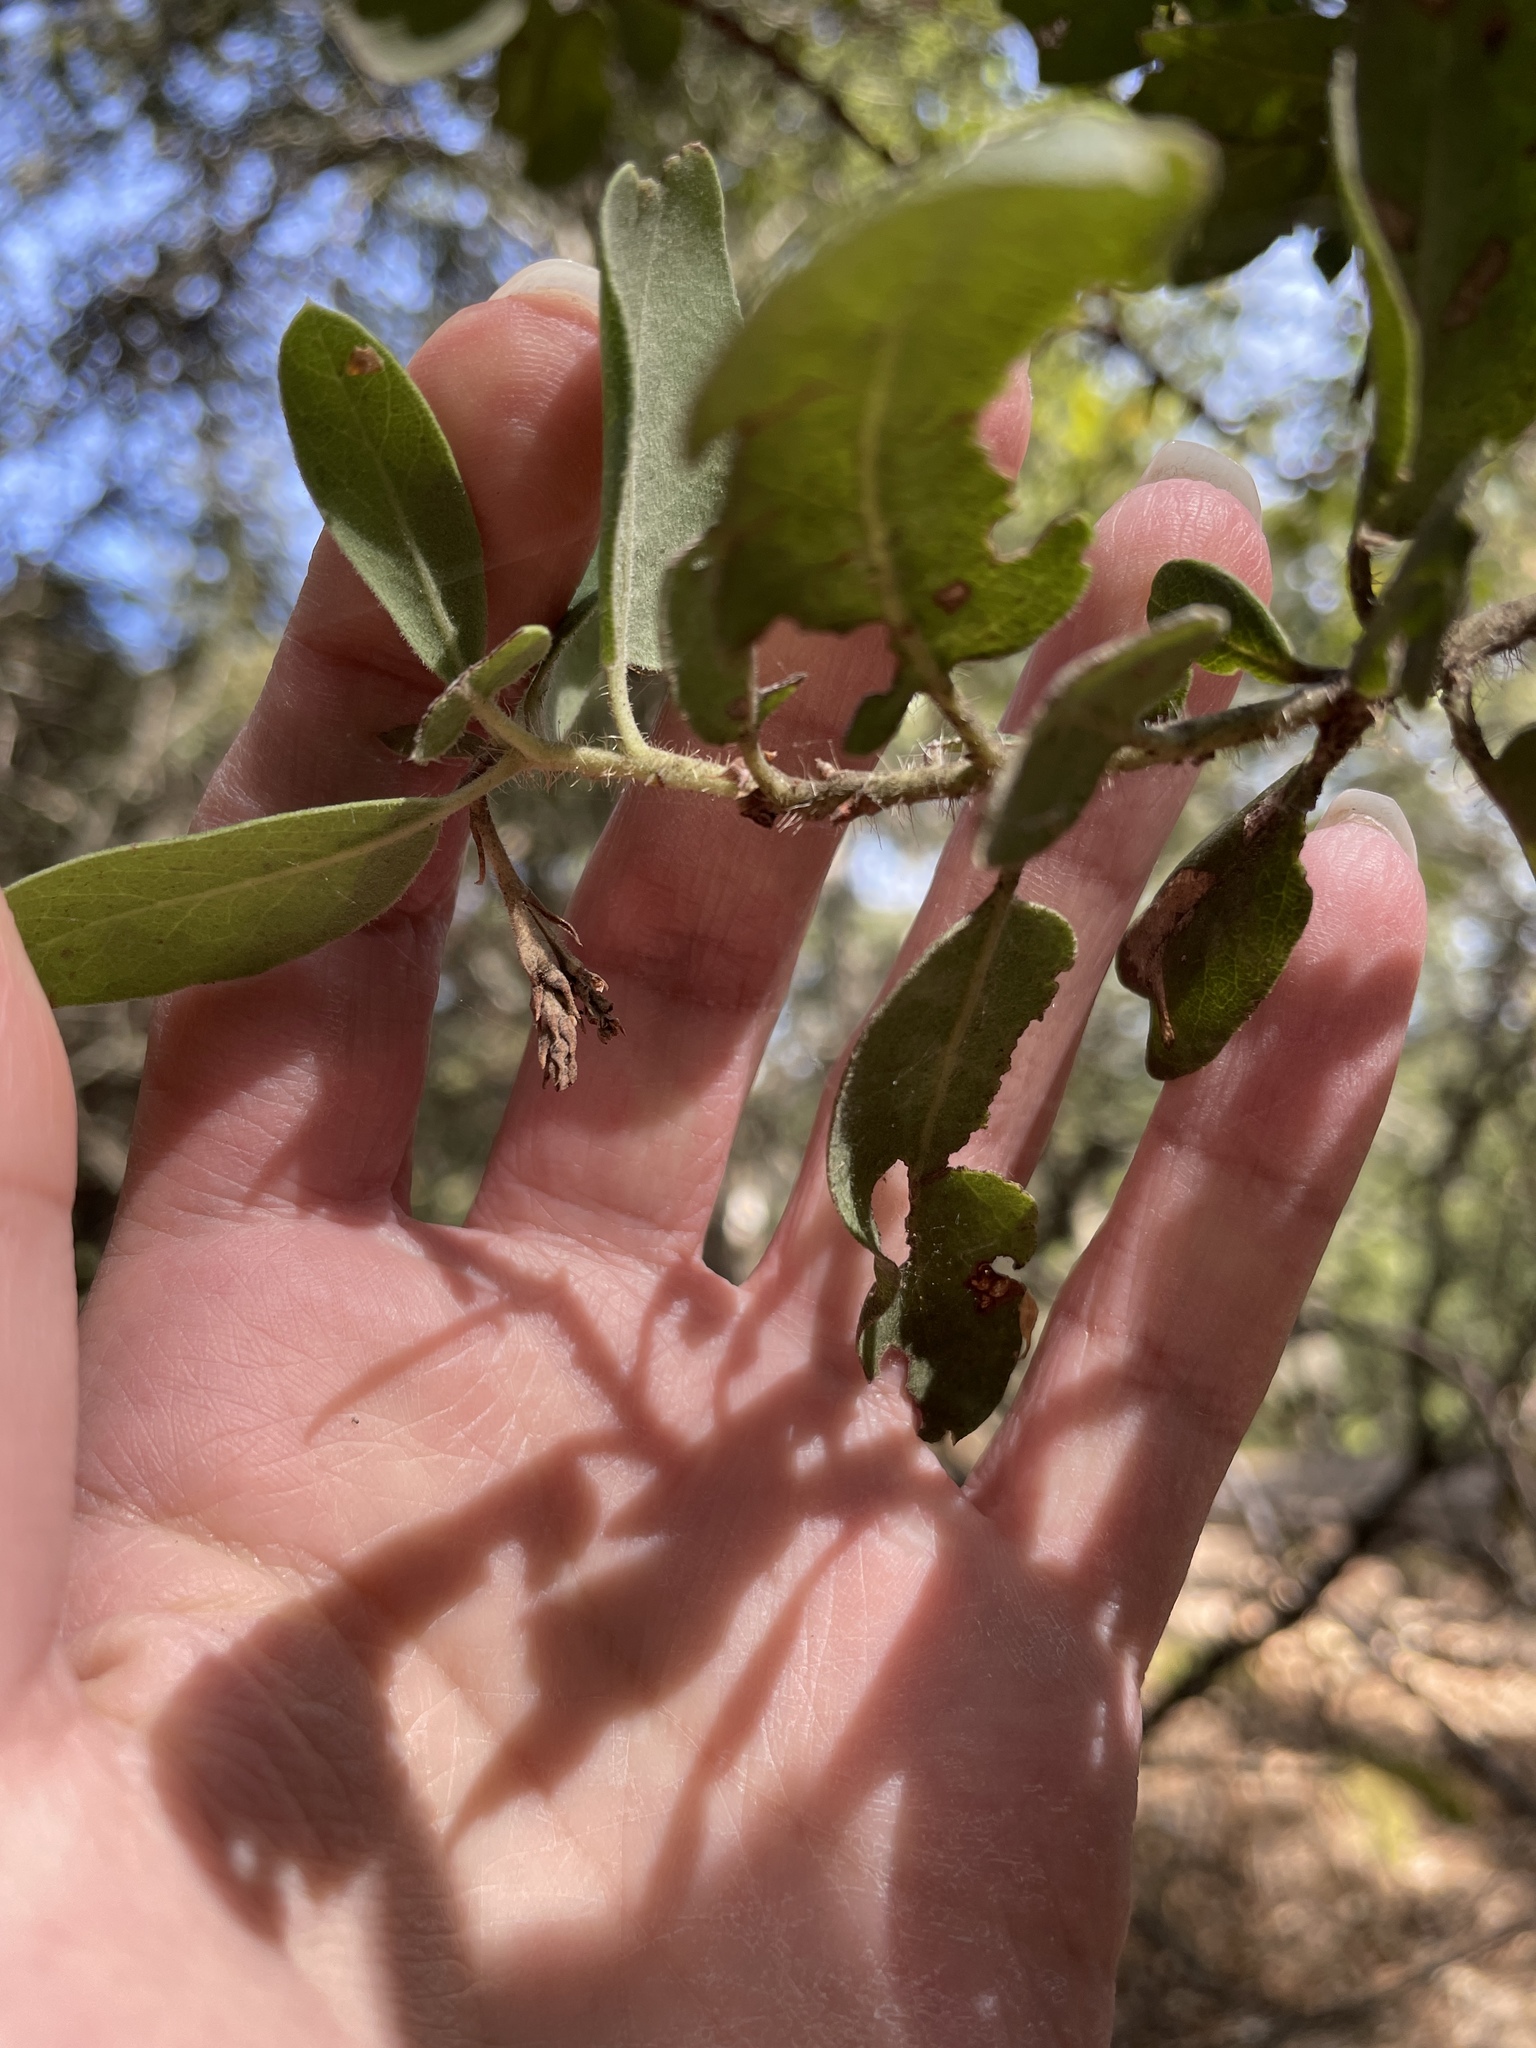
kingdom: Plantae
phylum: Tracheophyta
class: Magnoliopsida
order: Ericales
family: Ericaceae
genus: Arctostaphylos
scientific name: Arctostaphylos crustacea
